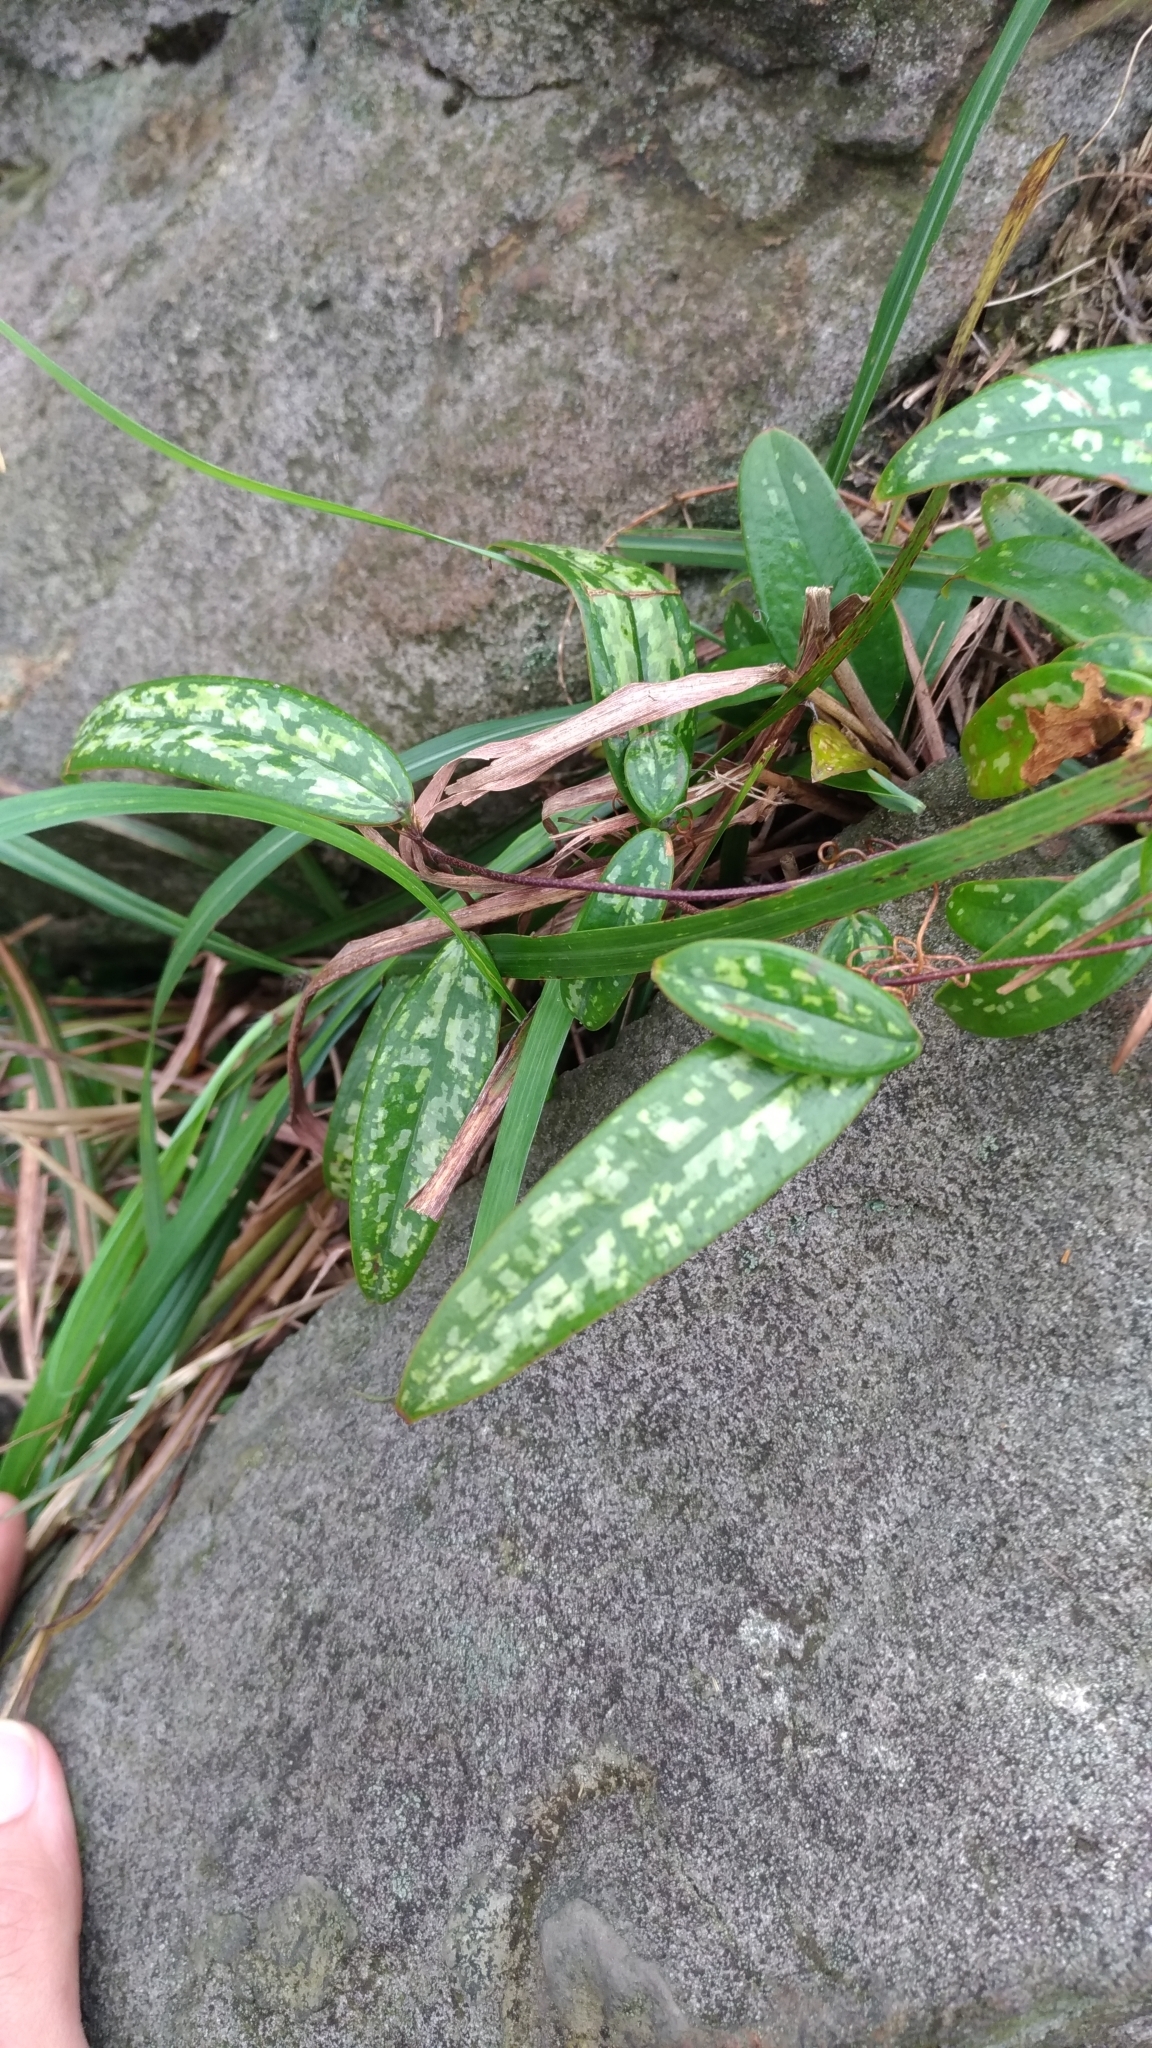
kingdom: Plantae
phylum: Tracheophyta
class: Liliopsida
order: Liliales
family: Smilacaceae
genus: Smilax
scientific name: Smilax glabra
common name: Chinese smilax
